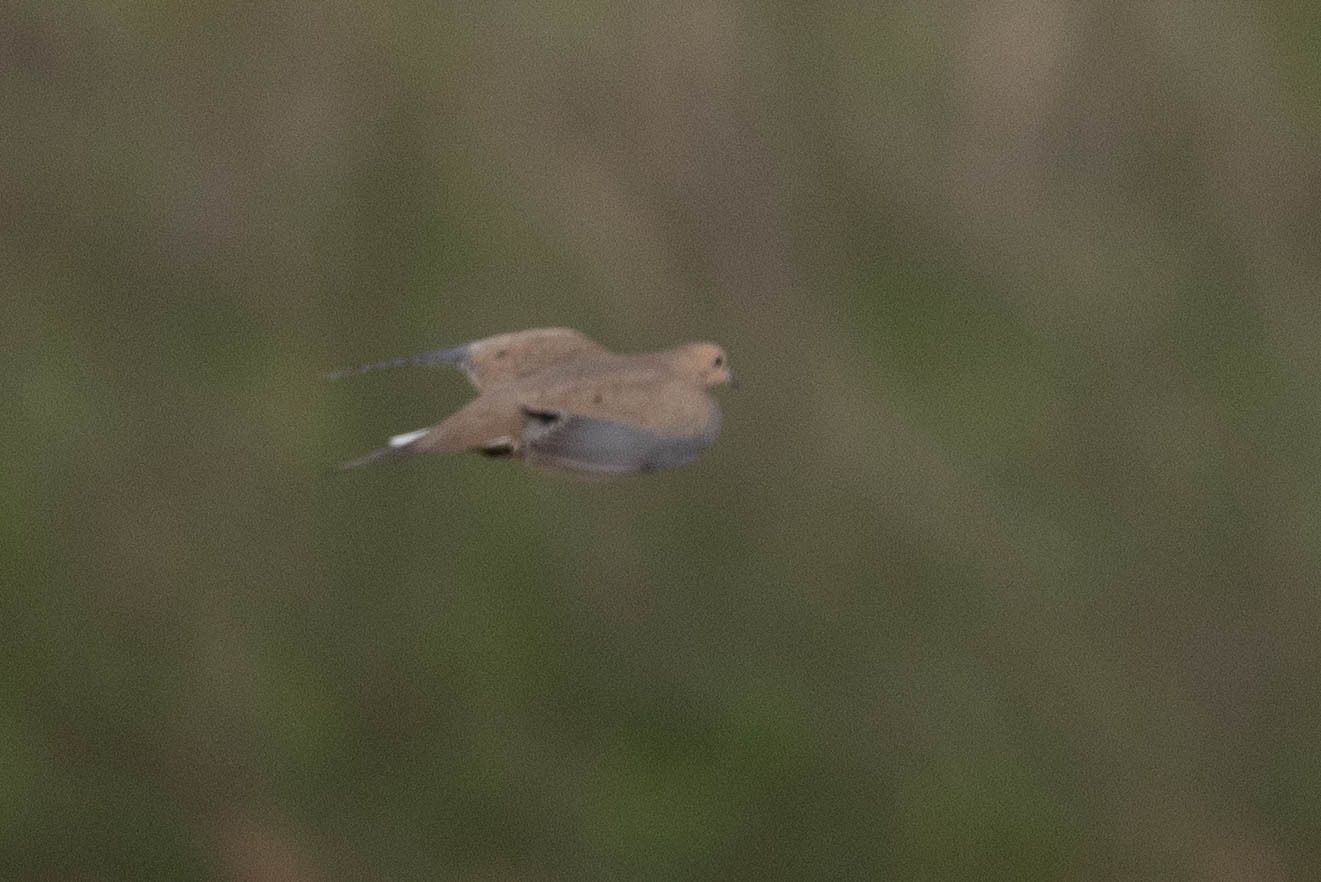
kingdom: Animalia
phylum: Chordata
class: Aves
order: Columbiformes
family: Columbidae
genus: Zenaida
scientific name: Zenaida macroura
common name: Mourning dove
